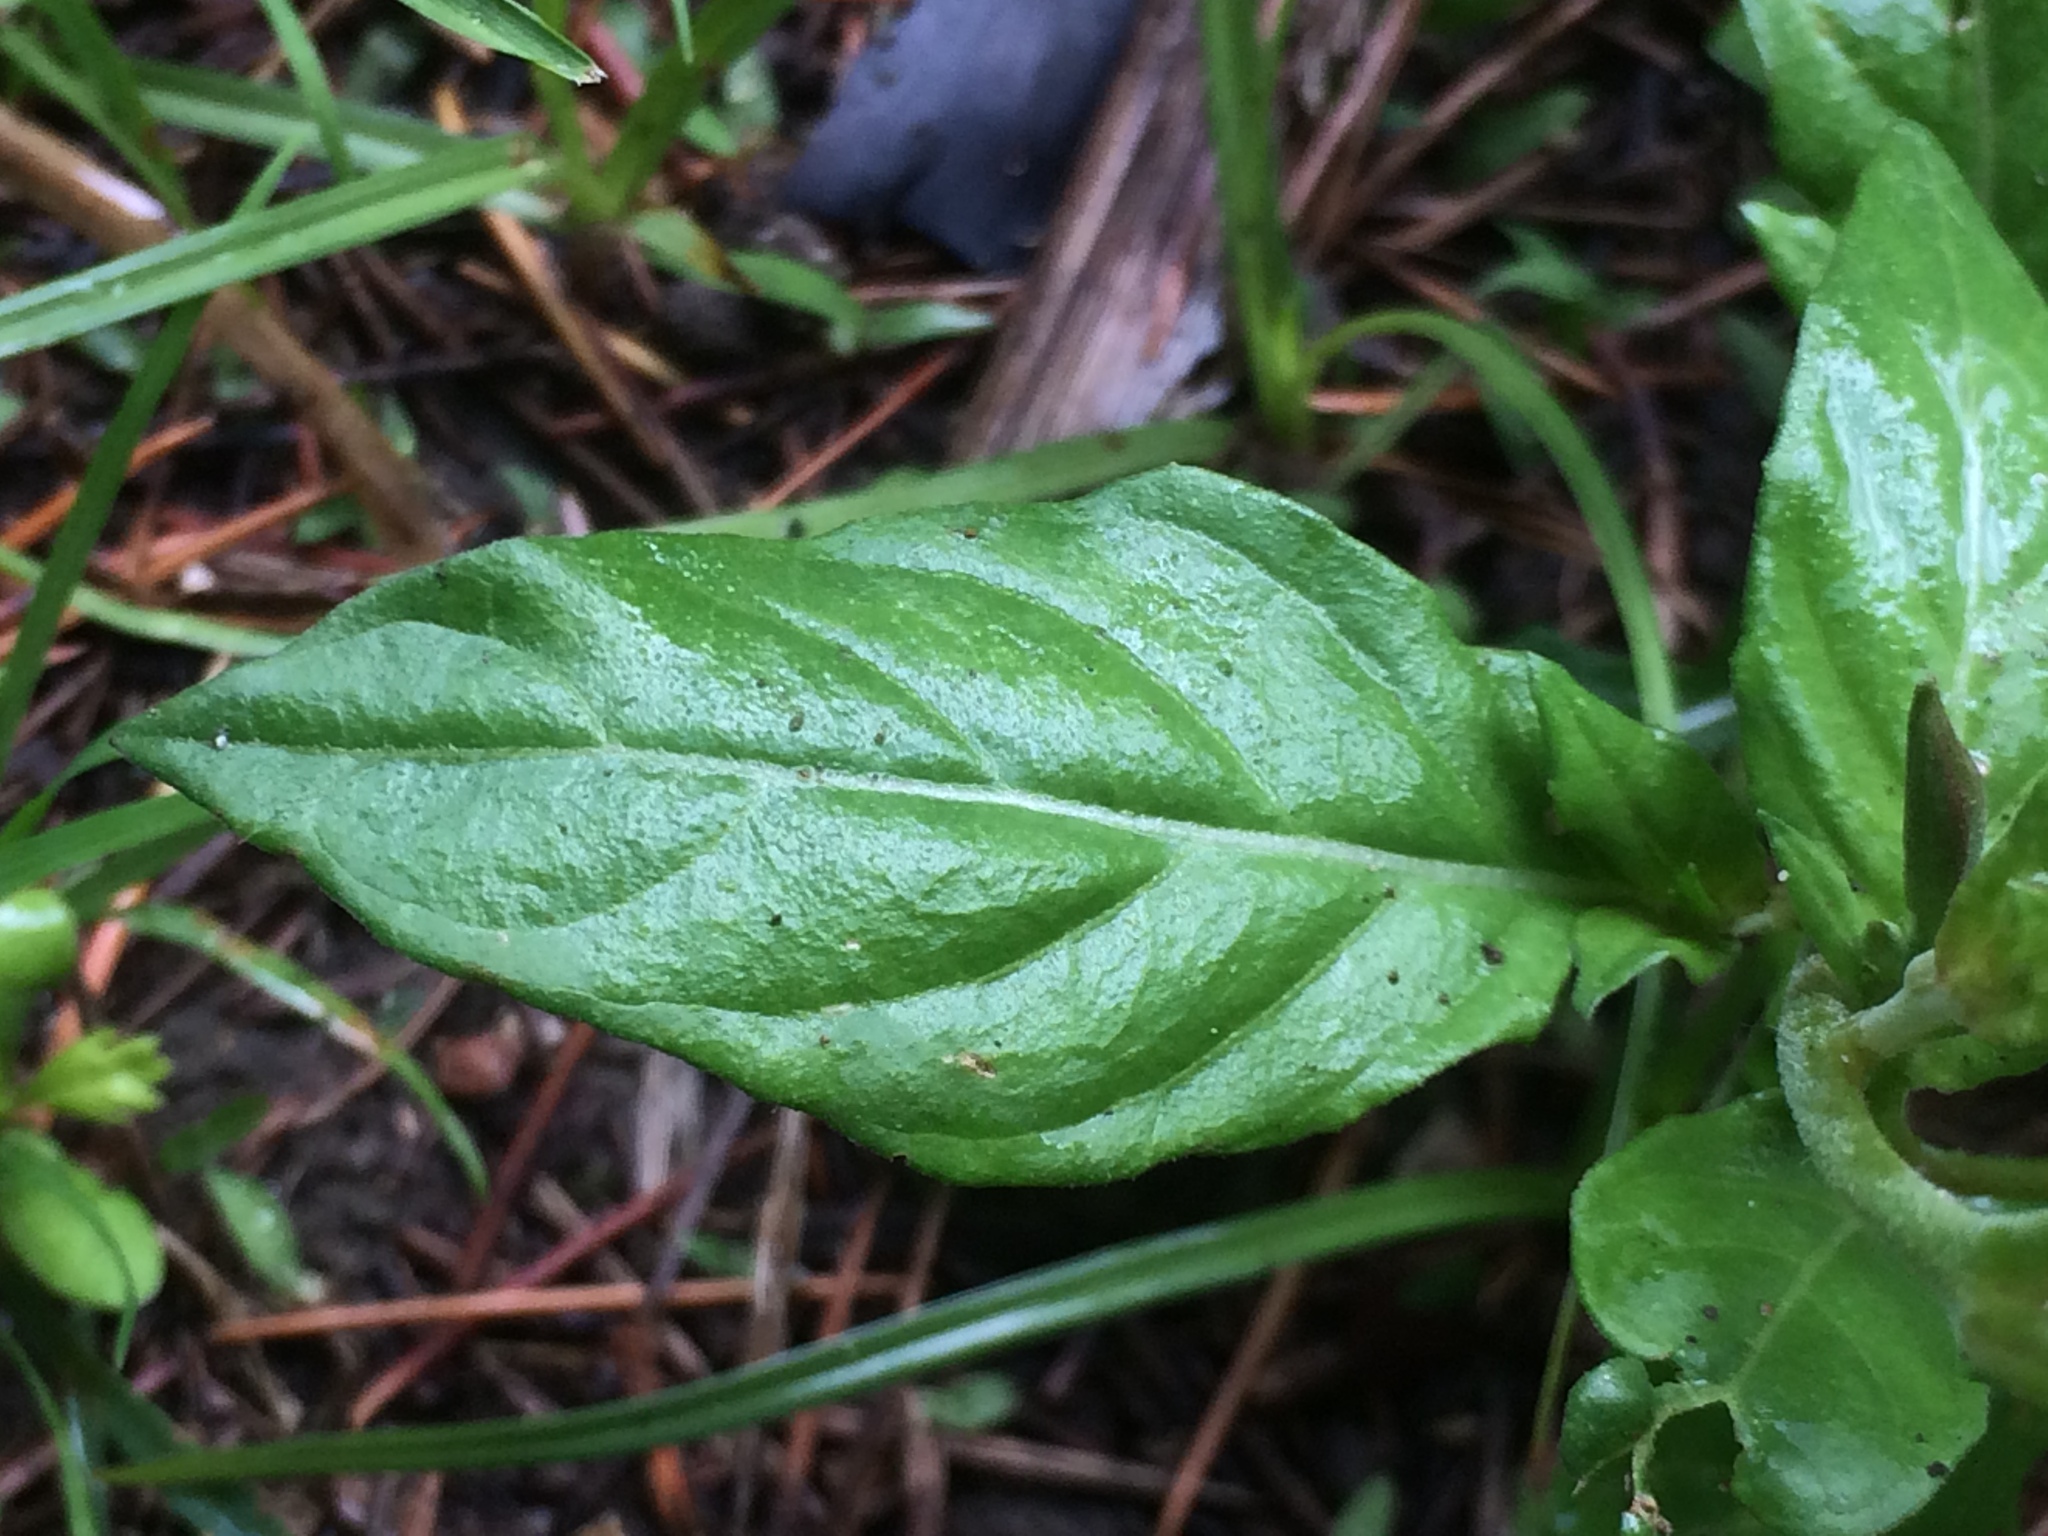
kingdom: Plantae
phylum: Tracheophyta
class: Magnoliopsida
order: Myrtales
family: Onagraceae
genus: Oenothera
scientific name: Oenothera rosea
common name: Rosy evening-primrose
